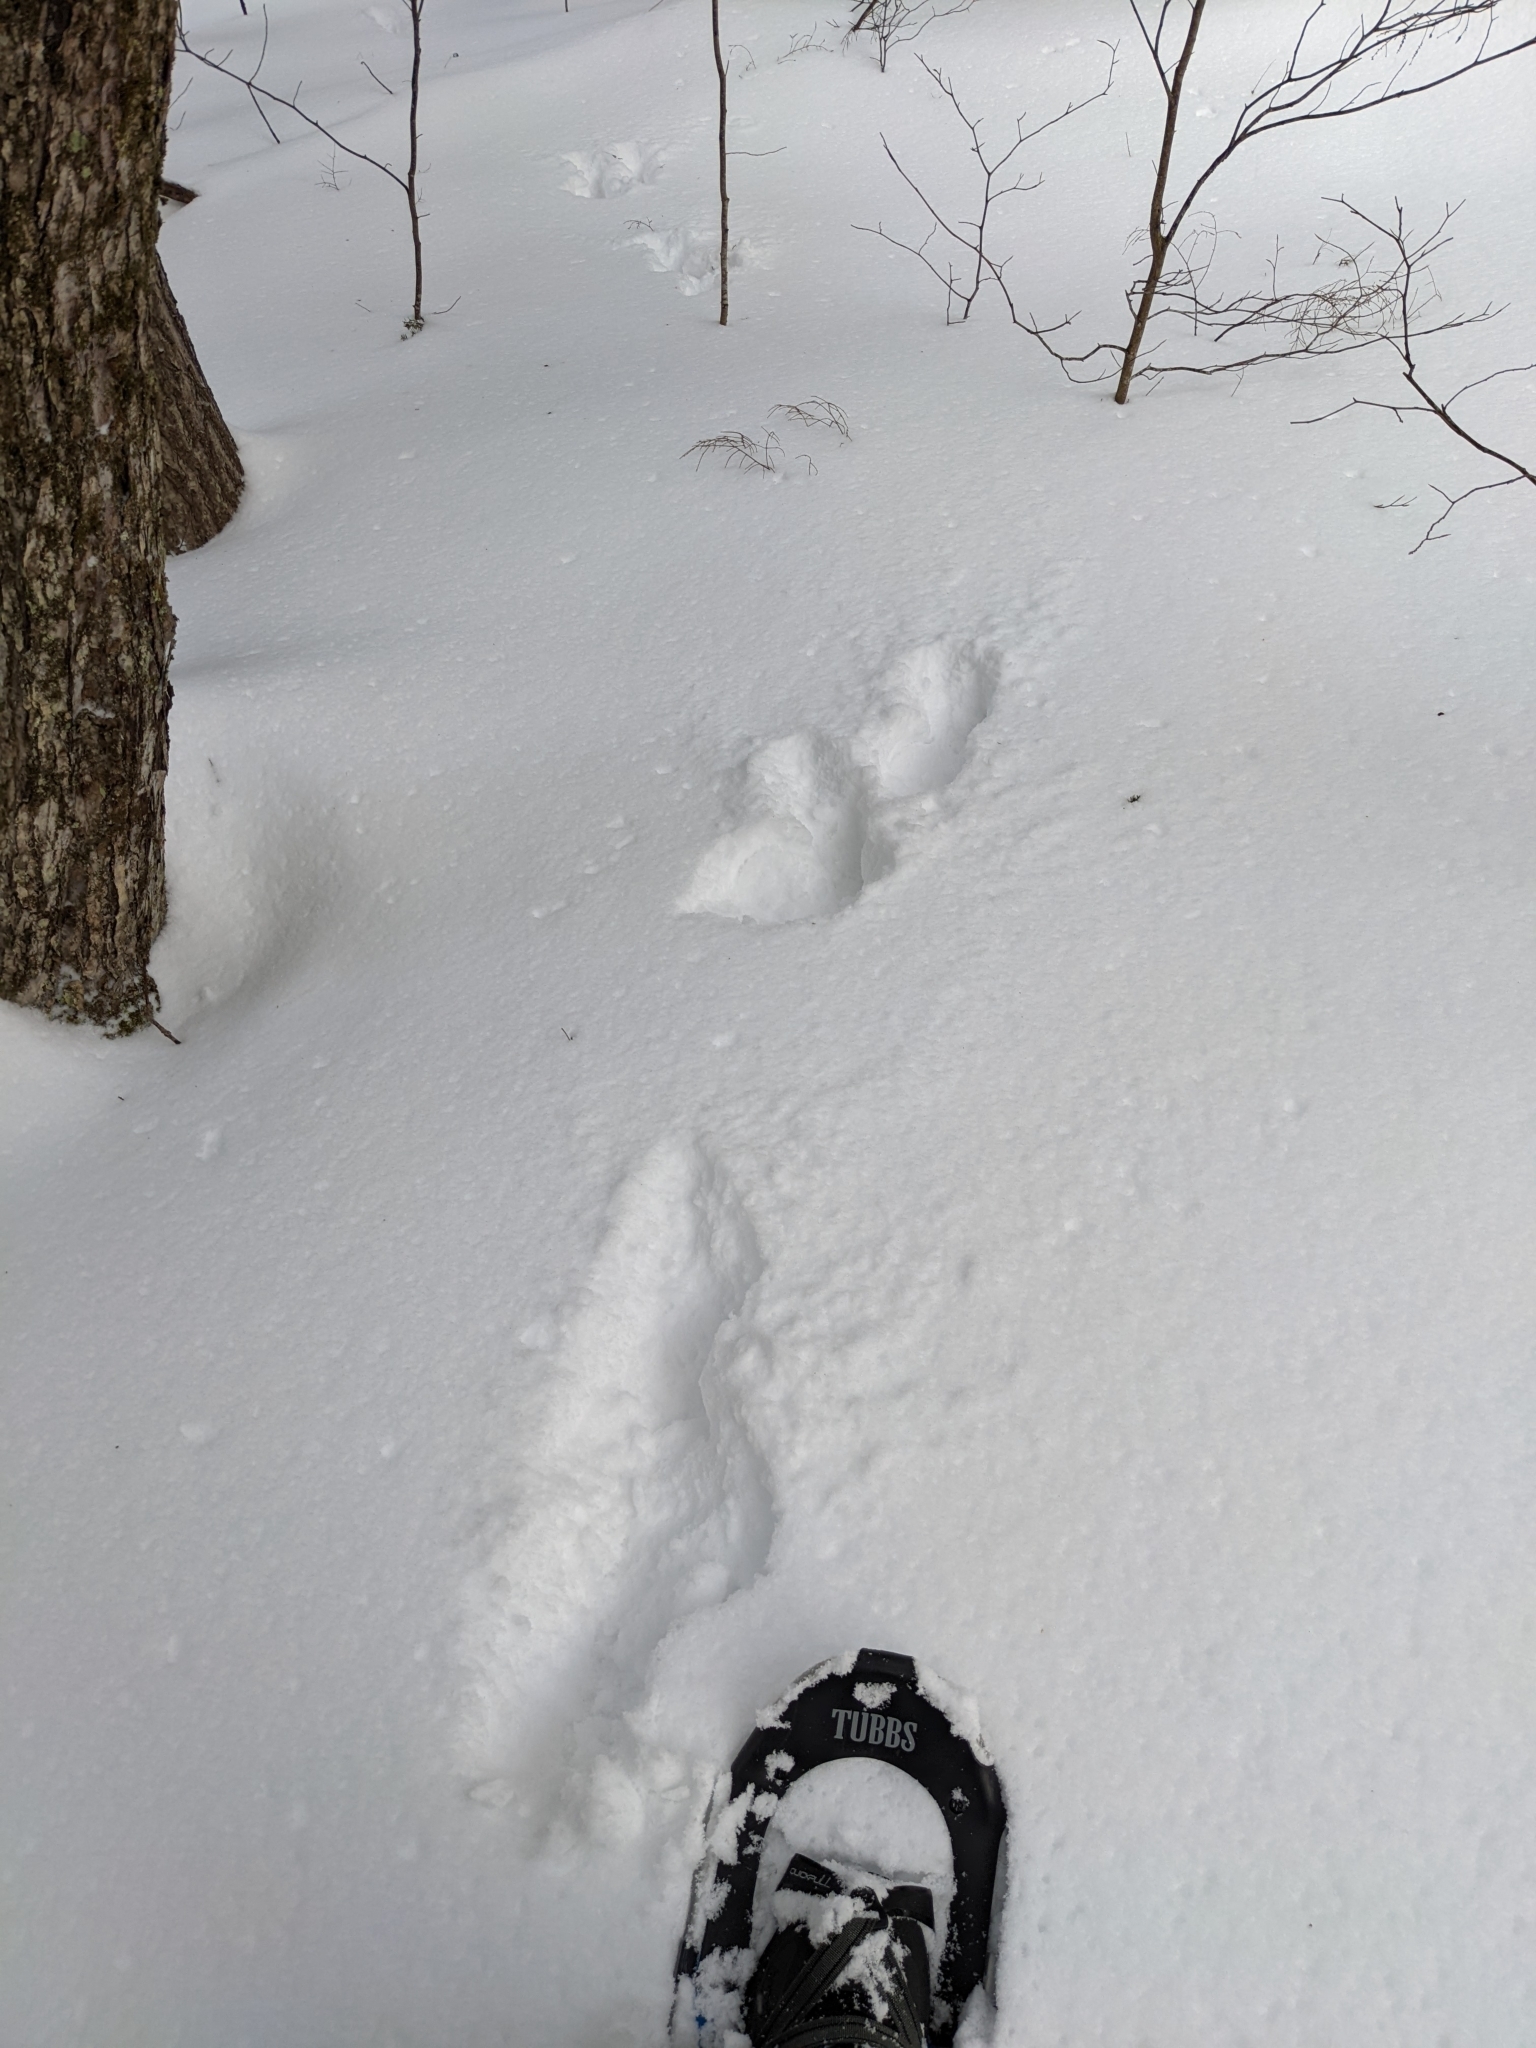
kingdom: Animalia
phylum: Chordata
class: Mammalia
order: Lagomorpha
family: Leporidae
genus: Lepus
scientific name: Lepus americanus
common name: Snowshoe hare
